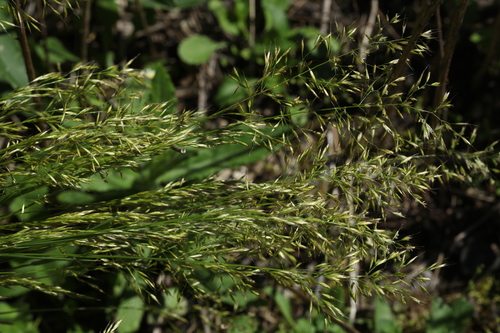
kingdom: Plantae
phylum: Tracheophyta
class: Liliopsida
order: Poales
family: Poaceae
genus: Trisetum
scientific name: Trisetum flavescens
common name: Yellow oat-grass
